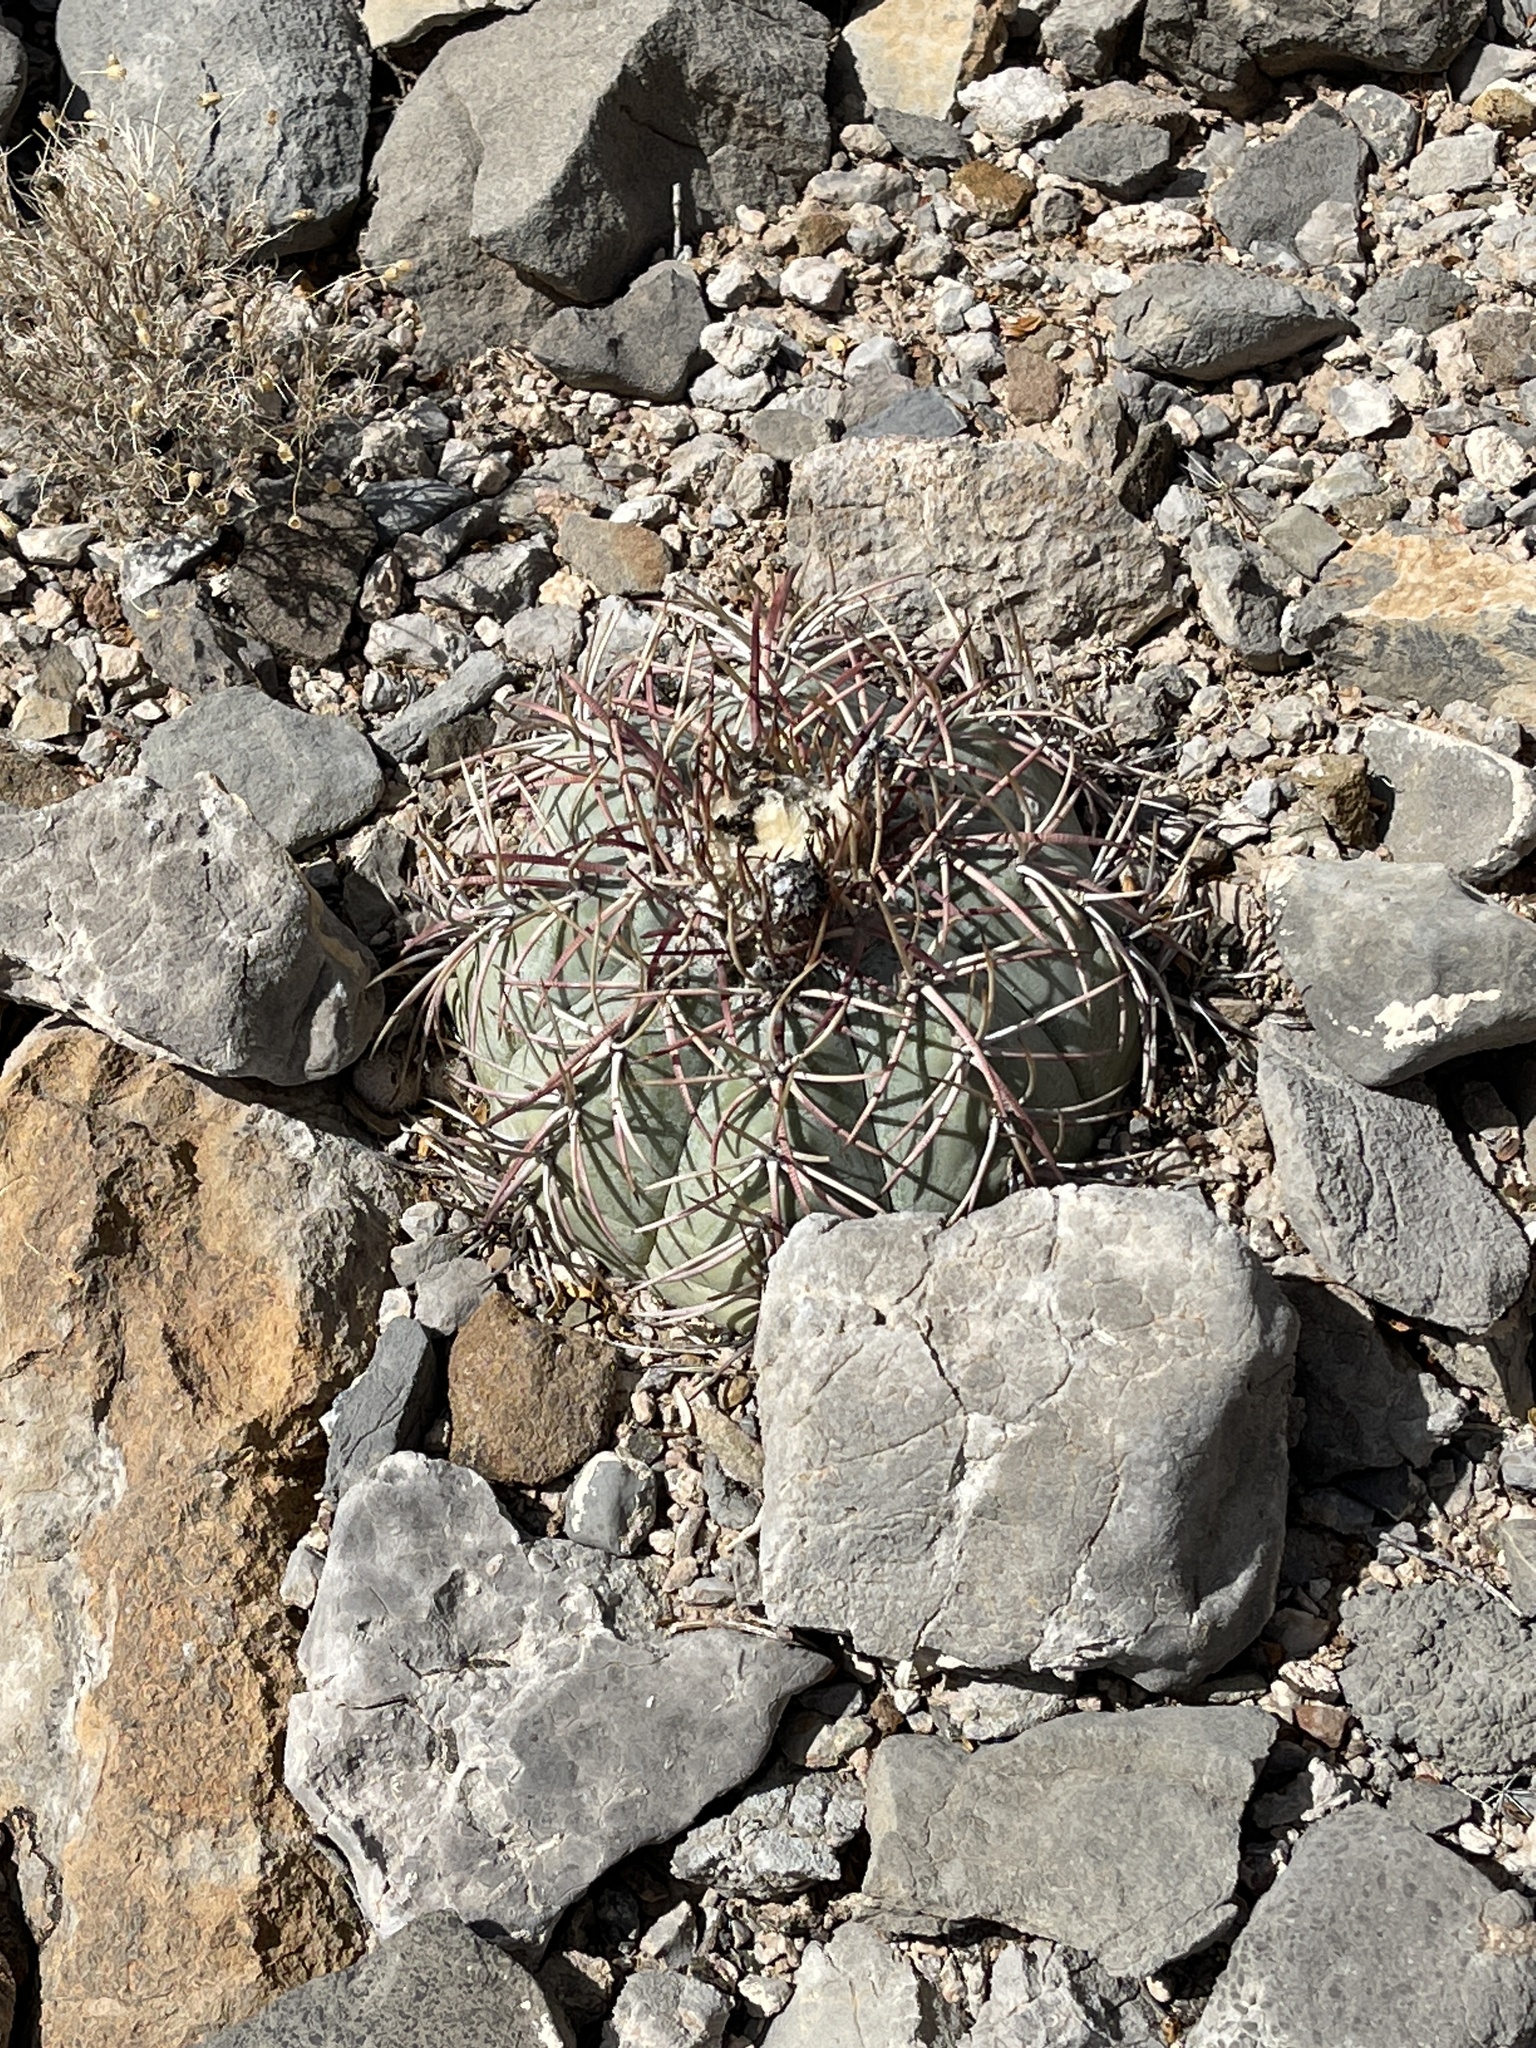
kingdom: Plantae
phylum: Tracheophyta
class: Magnoliopsida
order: Caryophyllales
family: Cactaceae
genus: Echinocactus
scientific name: Echinocactus horizonthalonius
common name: Devilshead
